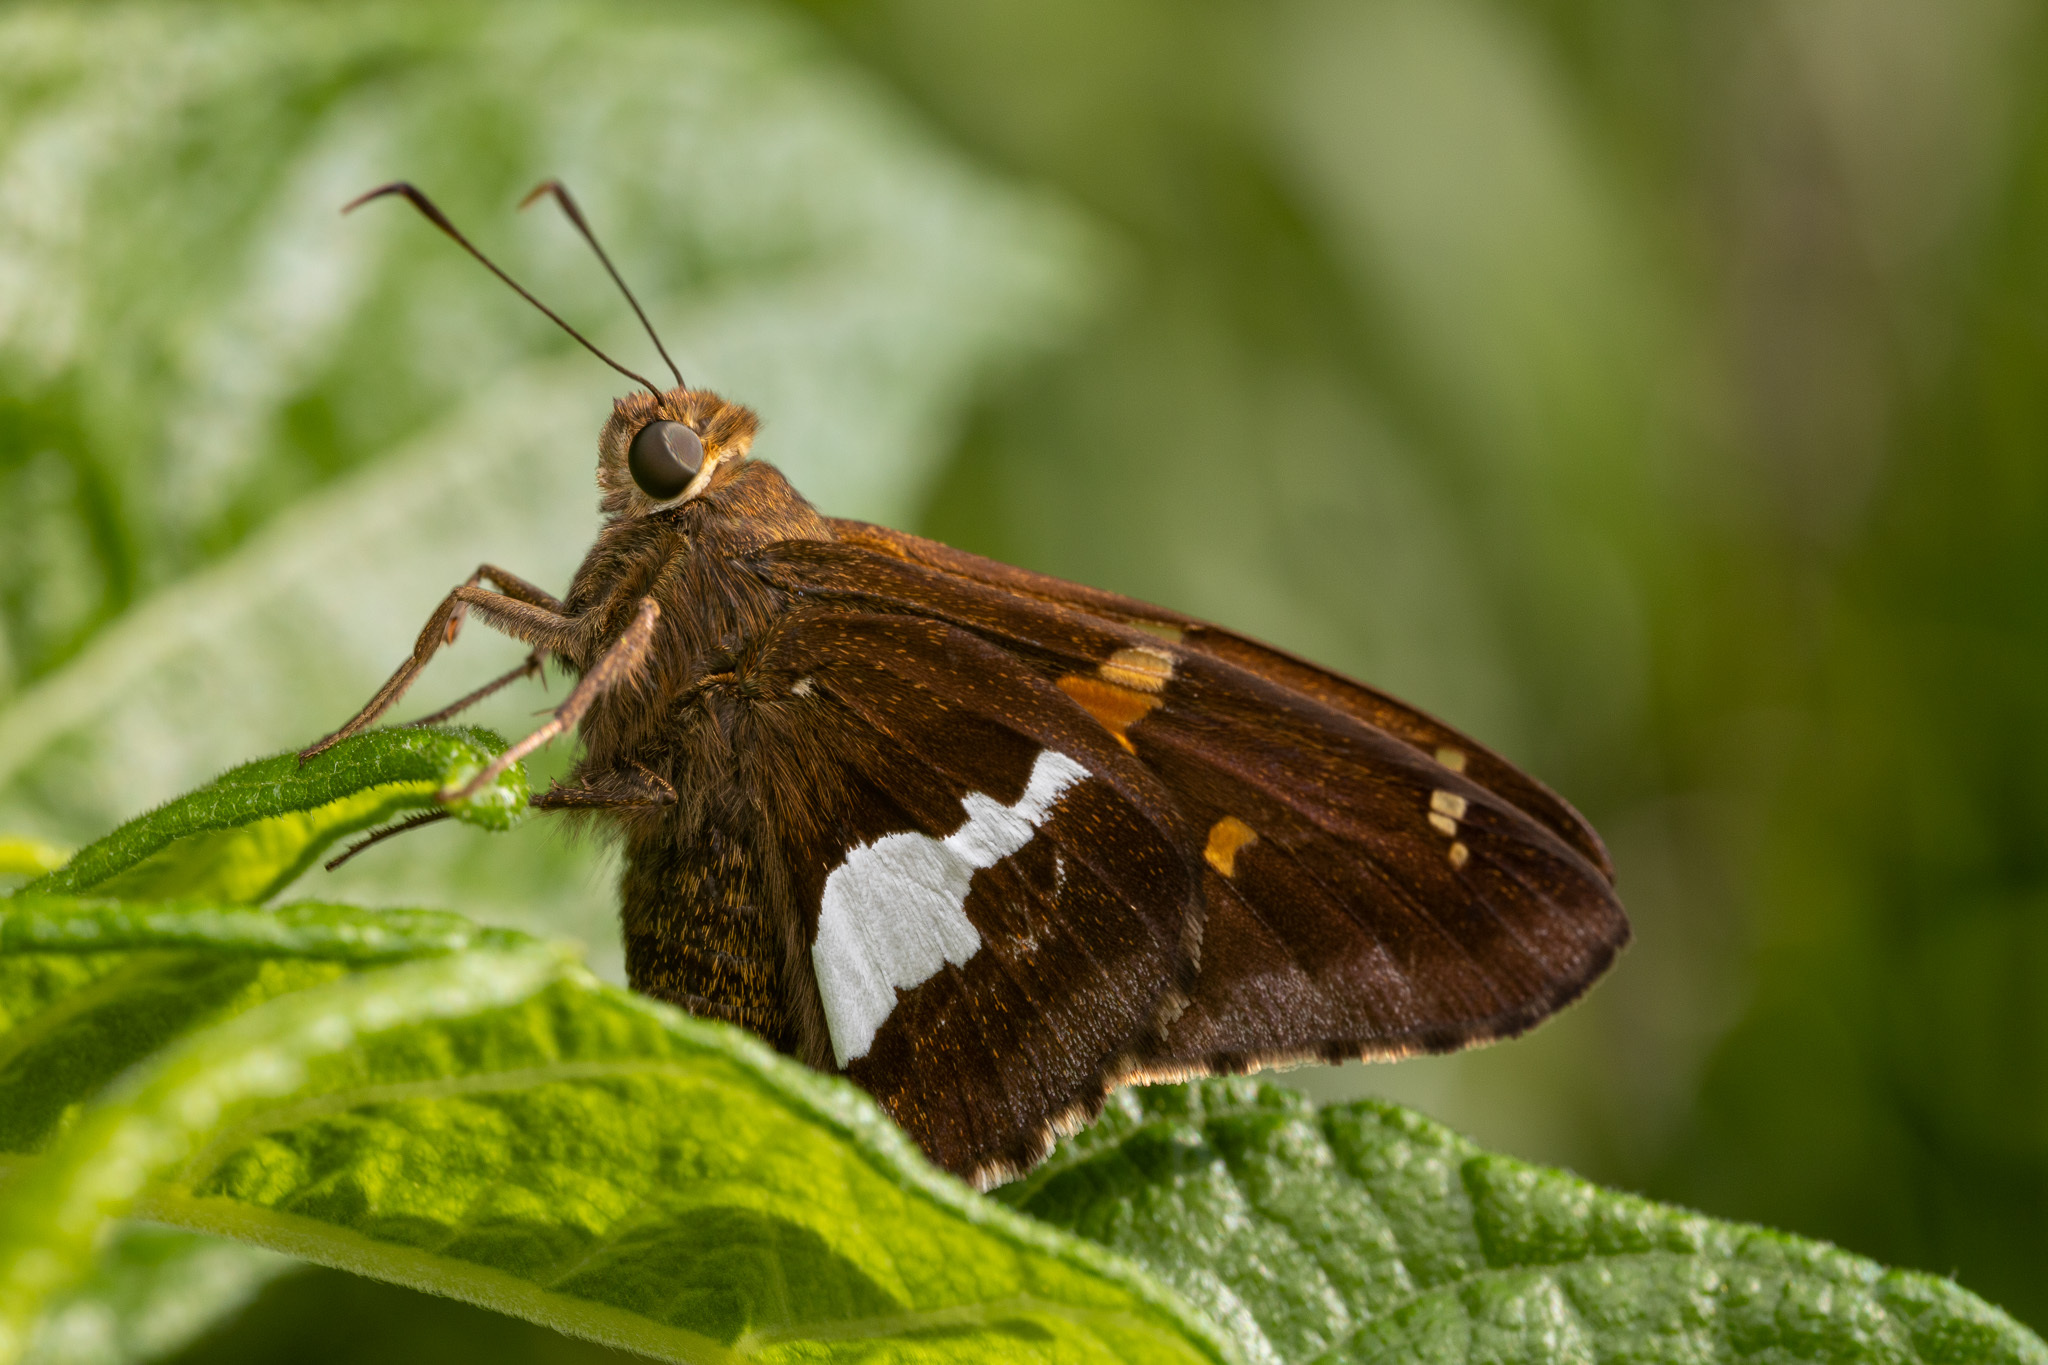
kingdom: Animalia
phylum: Arthropoda
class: Insecta
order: Lepidoptera
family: Hesperiidae
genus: Epargyreus
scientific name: Epargyreus clarus
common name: Silver-spotted skipper
